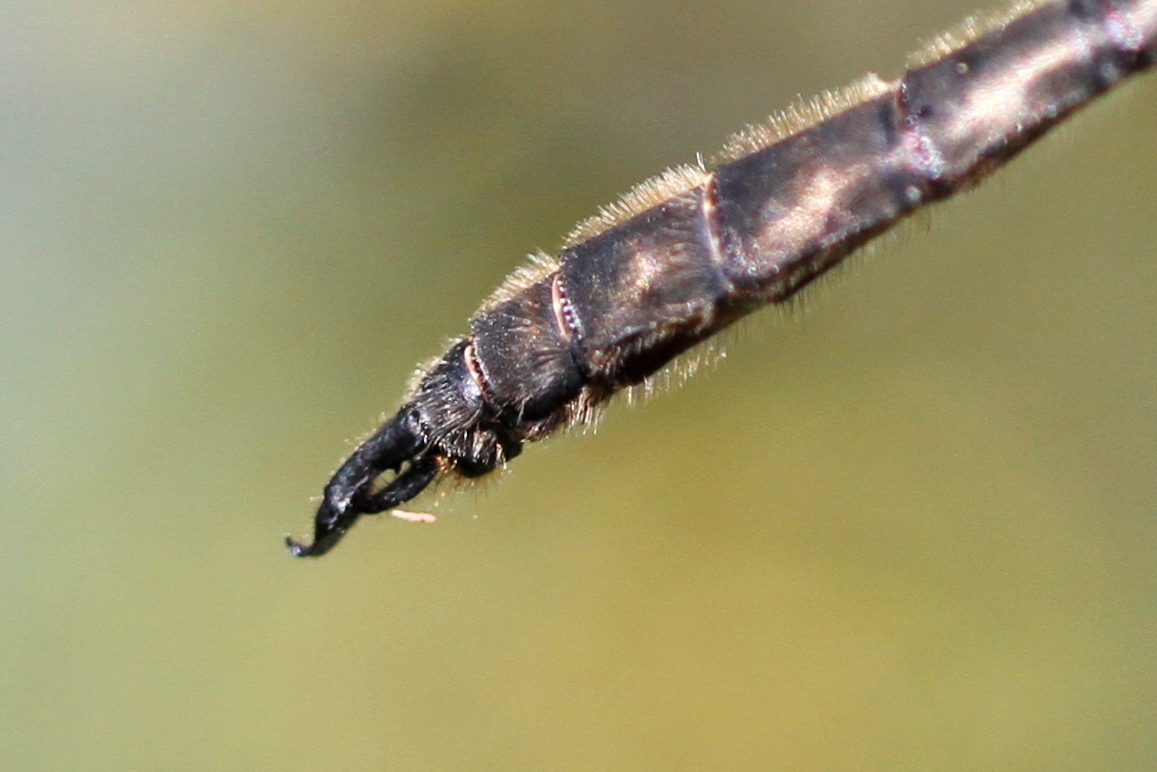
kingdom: Animalia
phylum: Arthropoda
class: Insecta
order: Odonata
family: Corduliidae
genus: Somatochlora
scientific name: Somatochlora whitehousei
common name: Whitehouse's emerald
